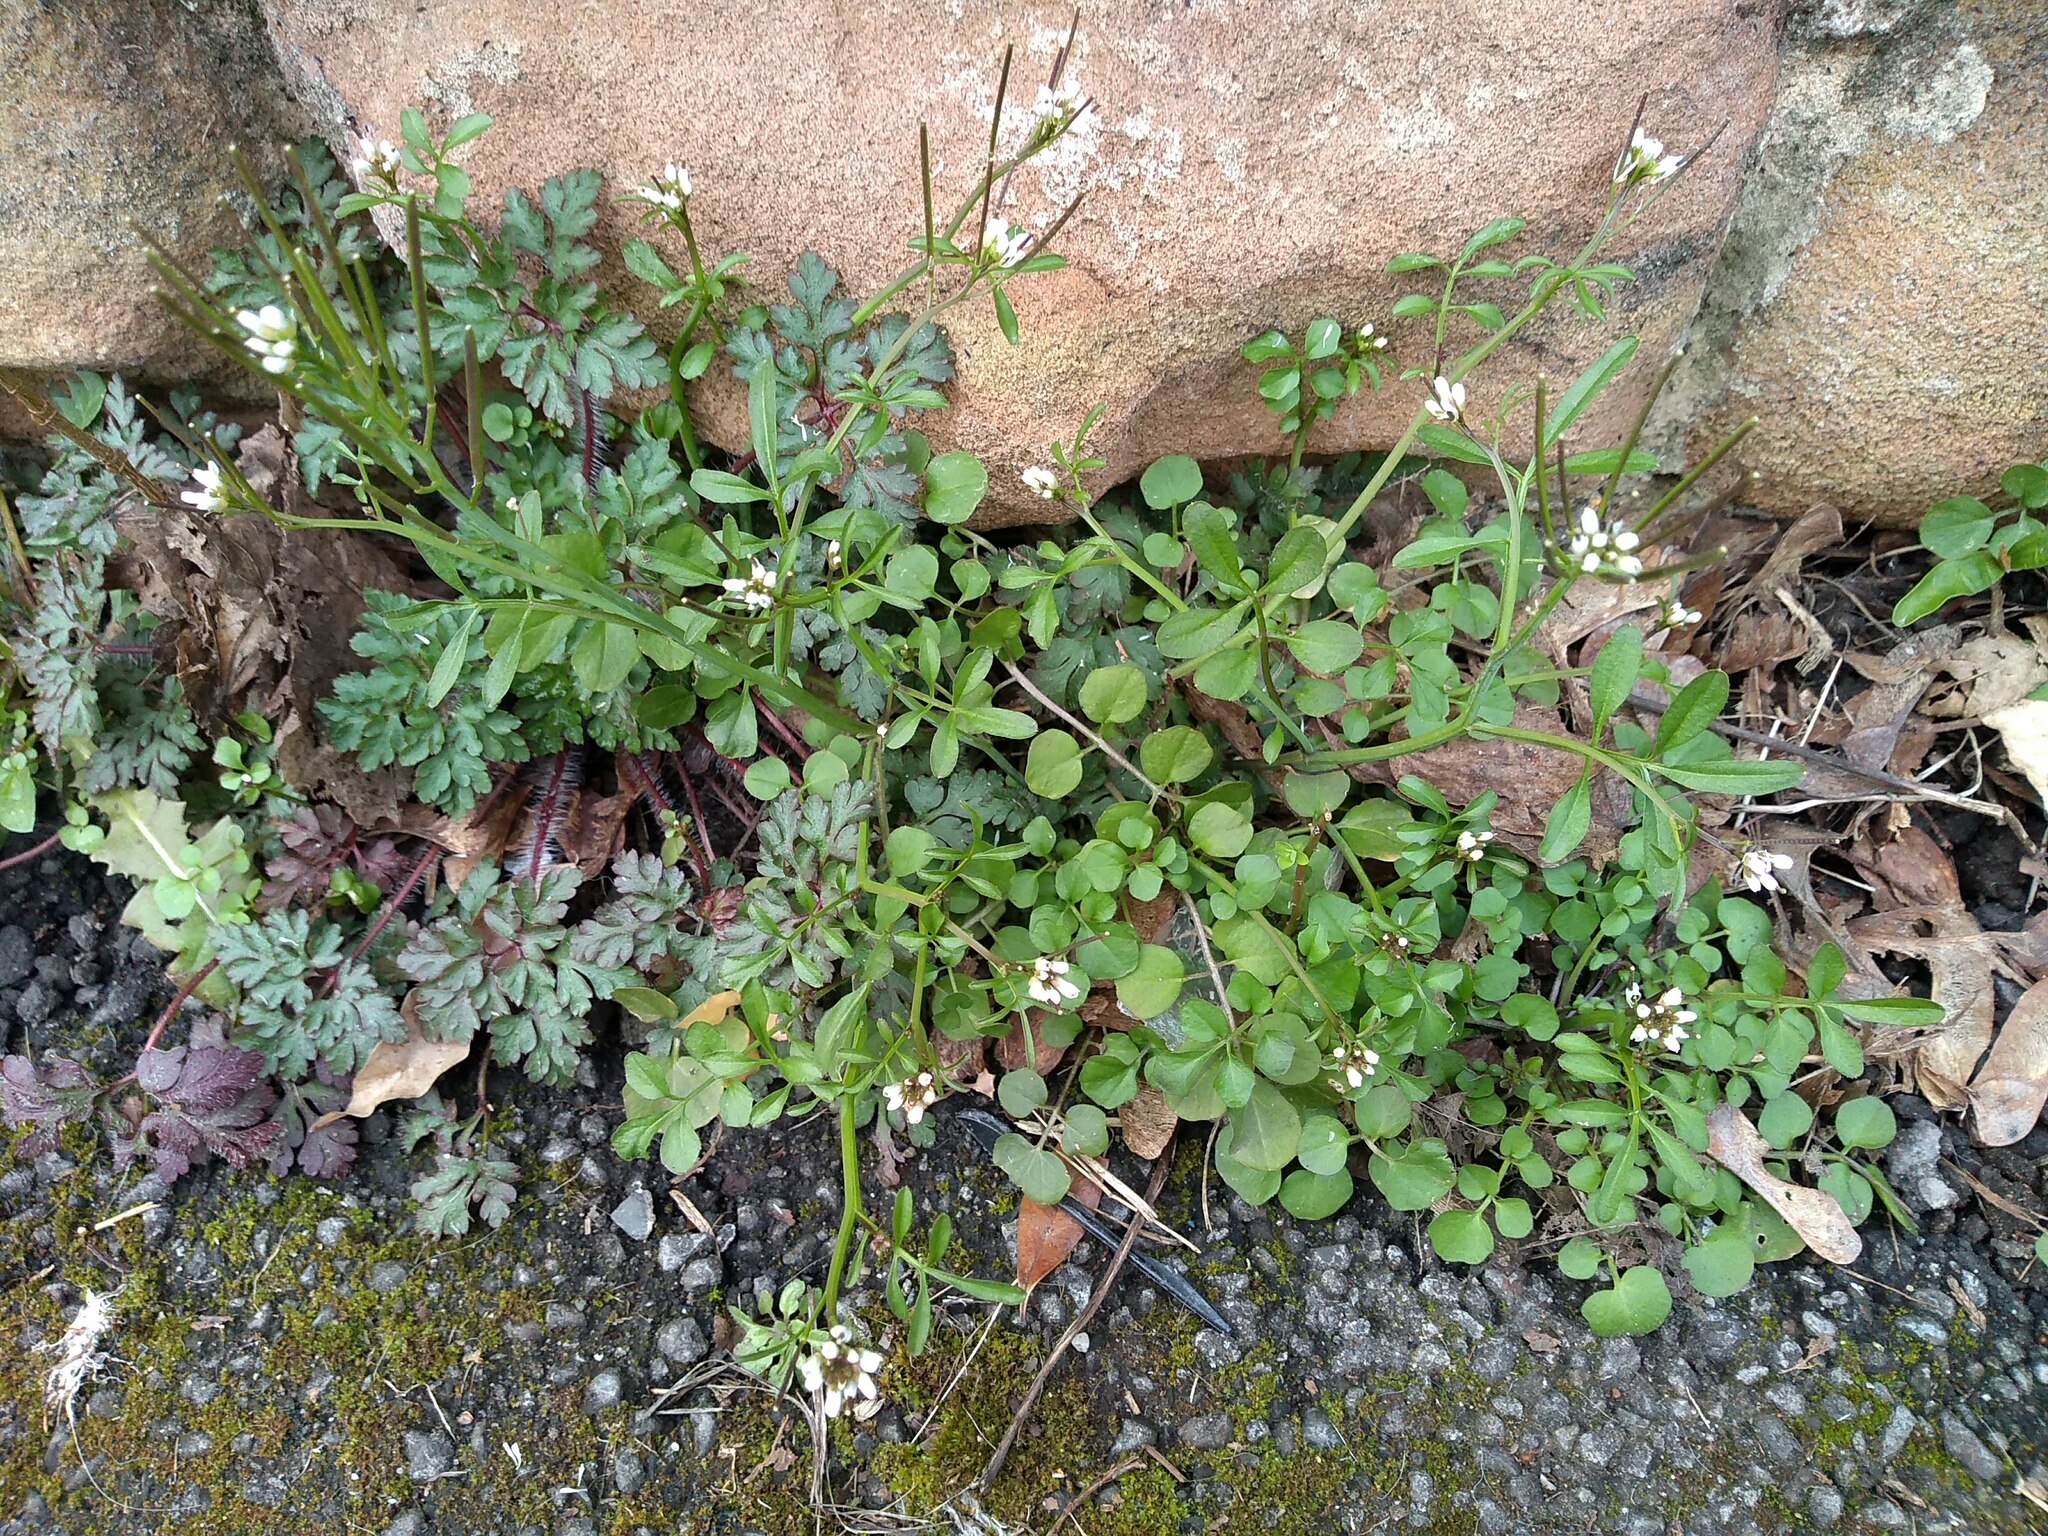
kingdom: Plantae
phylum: Tracheophyta
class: Magnoliopsida
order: Brassicales
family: Brassicaceae
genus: Cardamine
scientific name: Cardamine flexuosa
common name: Woodland bittercress
